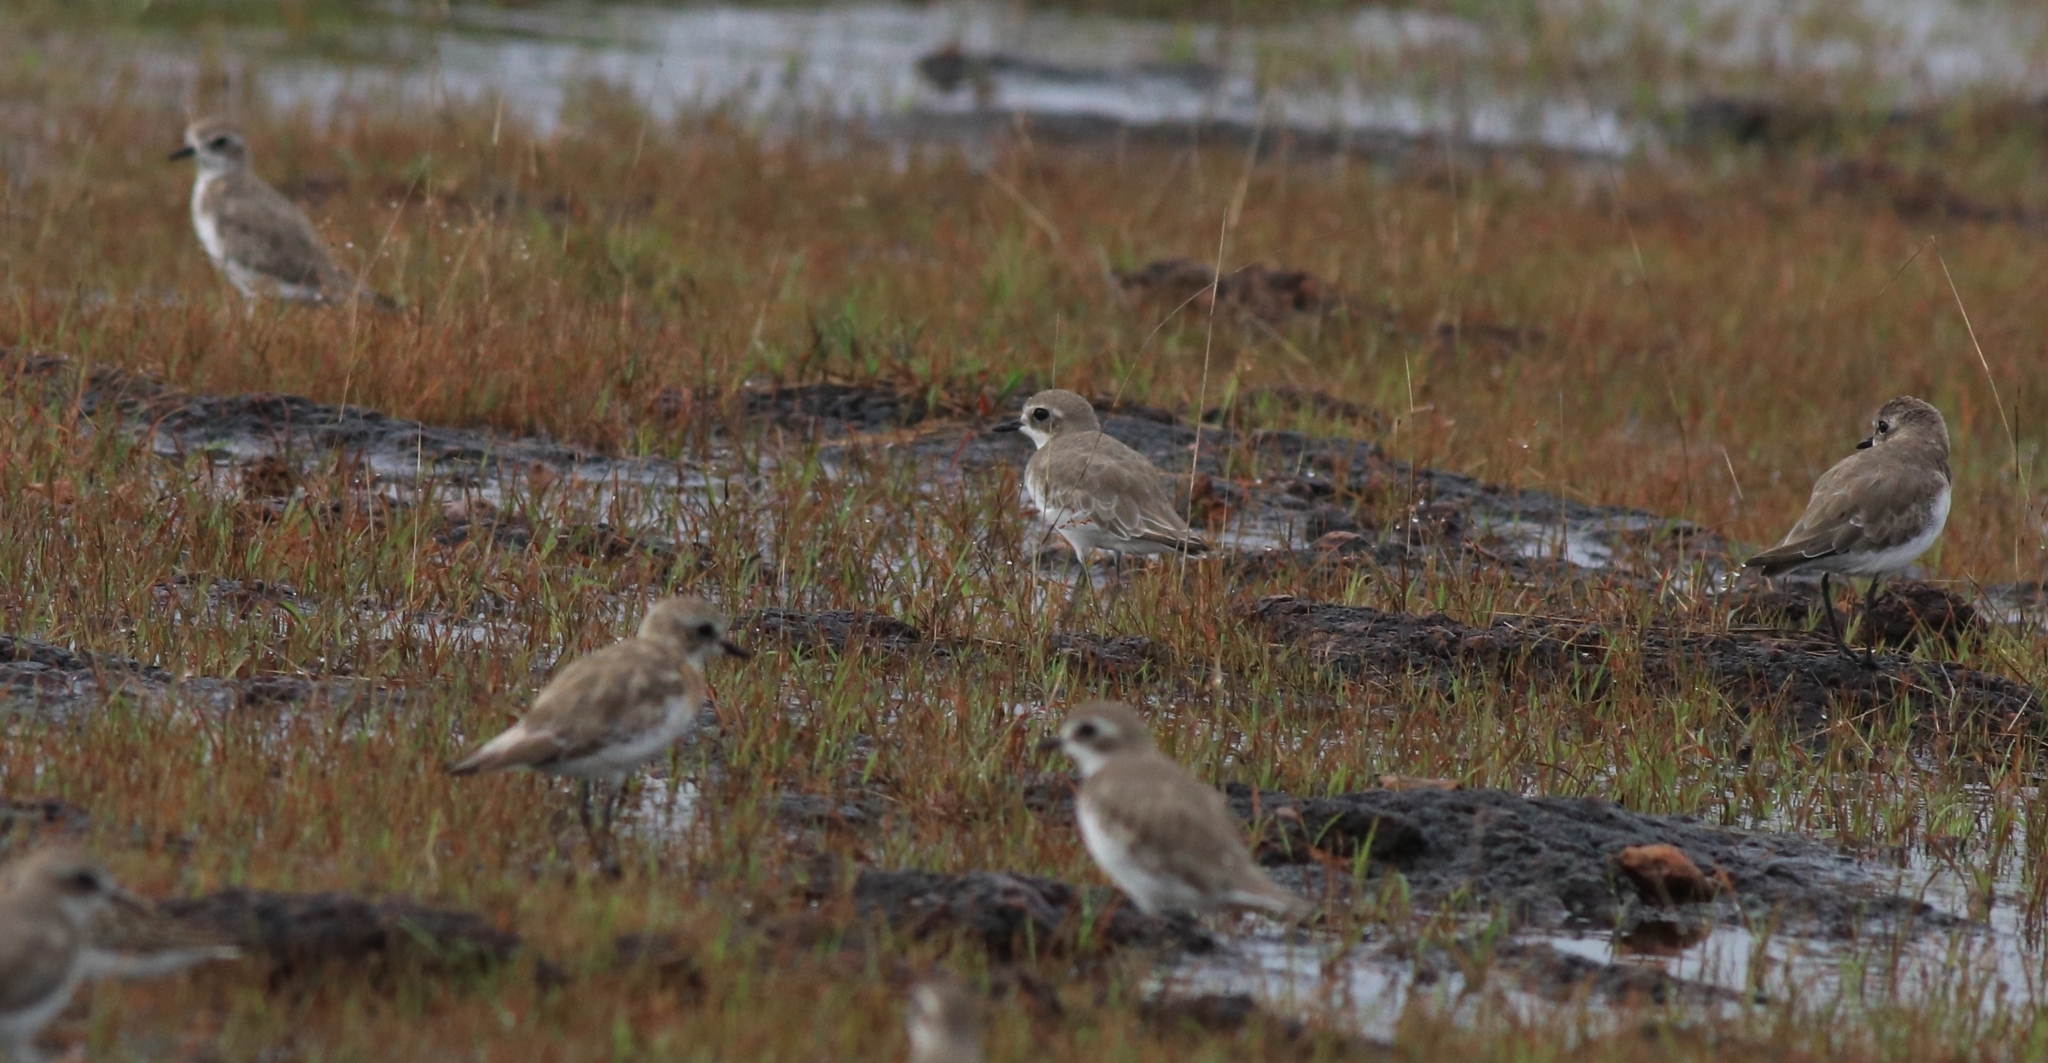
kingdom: Animalia
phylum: Chordata
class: Aves
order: Charadriiformes
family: Charadriidae
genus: Anarhynchus
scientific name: Anarhynchus
